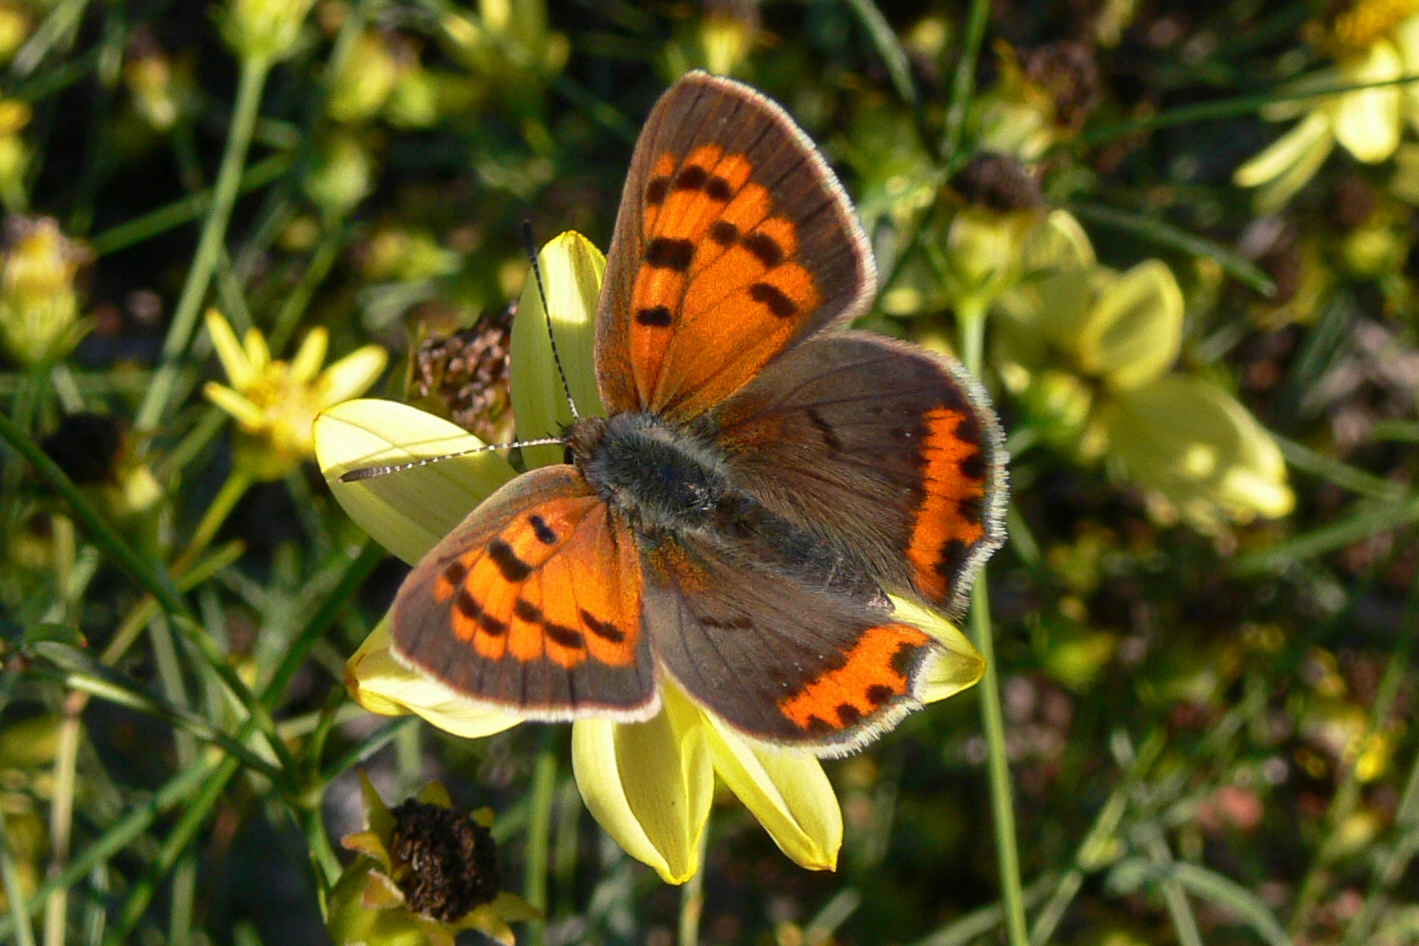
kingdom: Animalia
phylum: Arthropoda
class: Insecta
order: Lepidoptera
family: Lycaenidae
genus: Lycaena
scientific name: Lycaena hypophlaeas
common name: American copper
